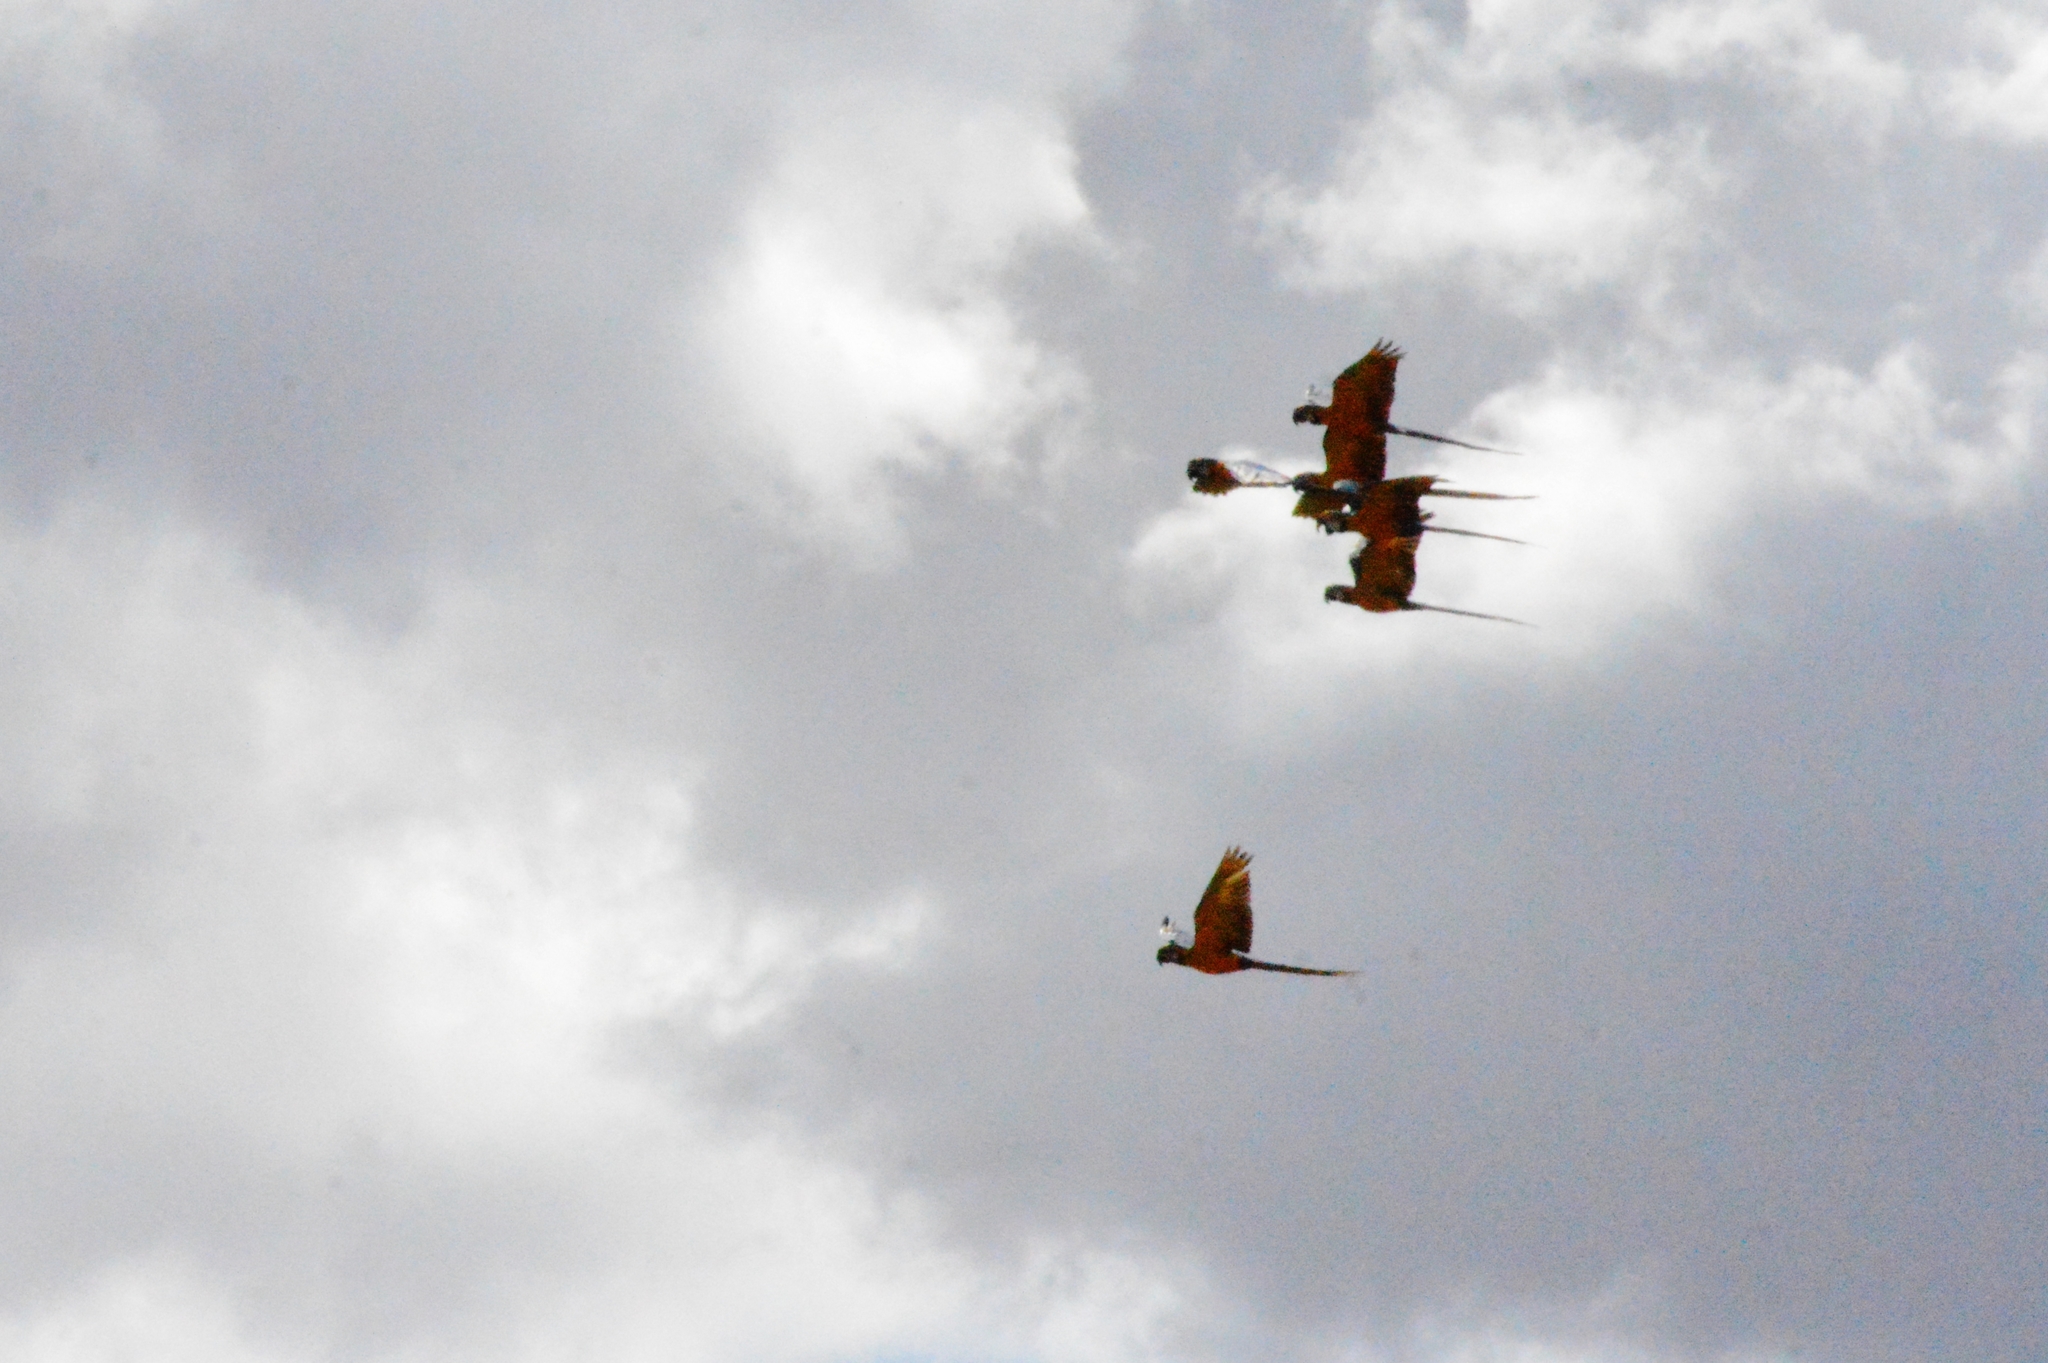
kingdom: Animalia
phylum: Chordata
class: Aves
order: Psittaciformes
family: Psittacidae
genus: Ara
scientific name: Ara ararauna
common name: Blue-and-yellow macaw
